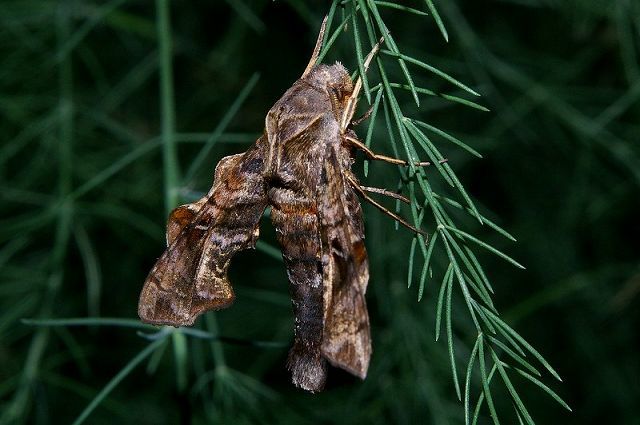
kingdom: Animalia
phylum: Arthropoda
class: Insecta
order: Lepidoptera
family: Sphingidae
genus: Neogurelca
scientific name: Neogurelca himachala
